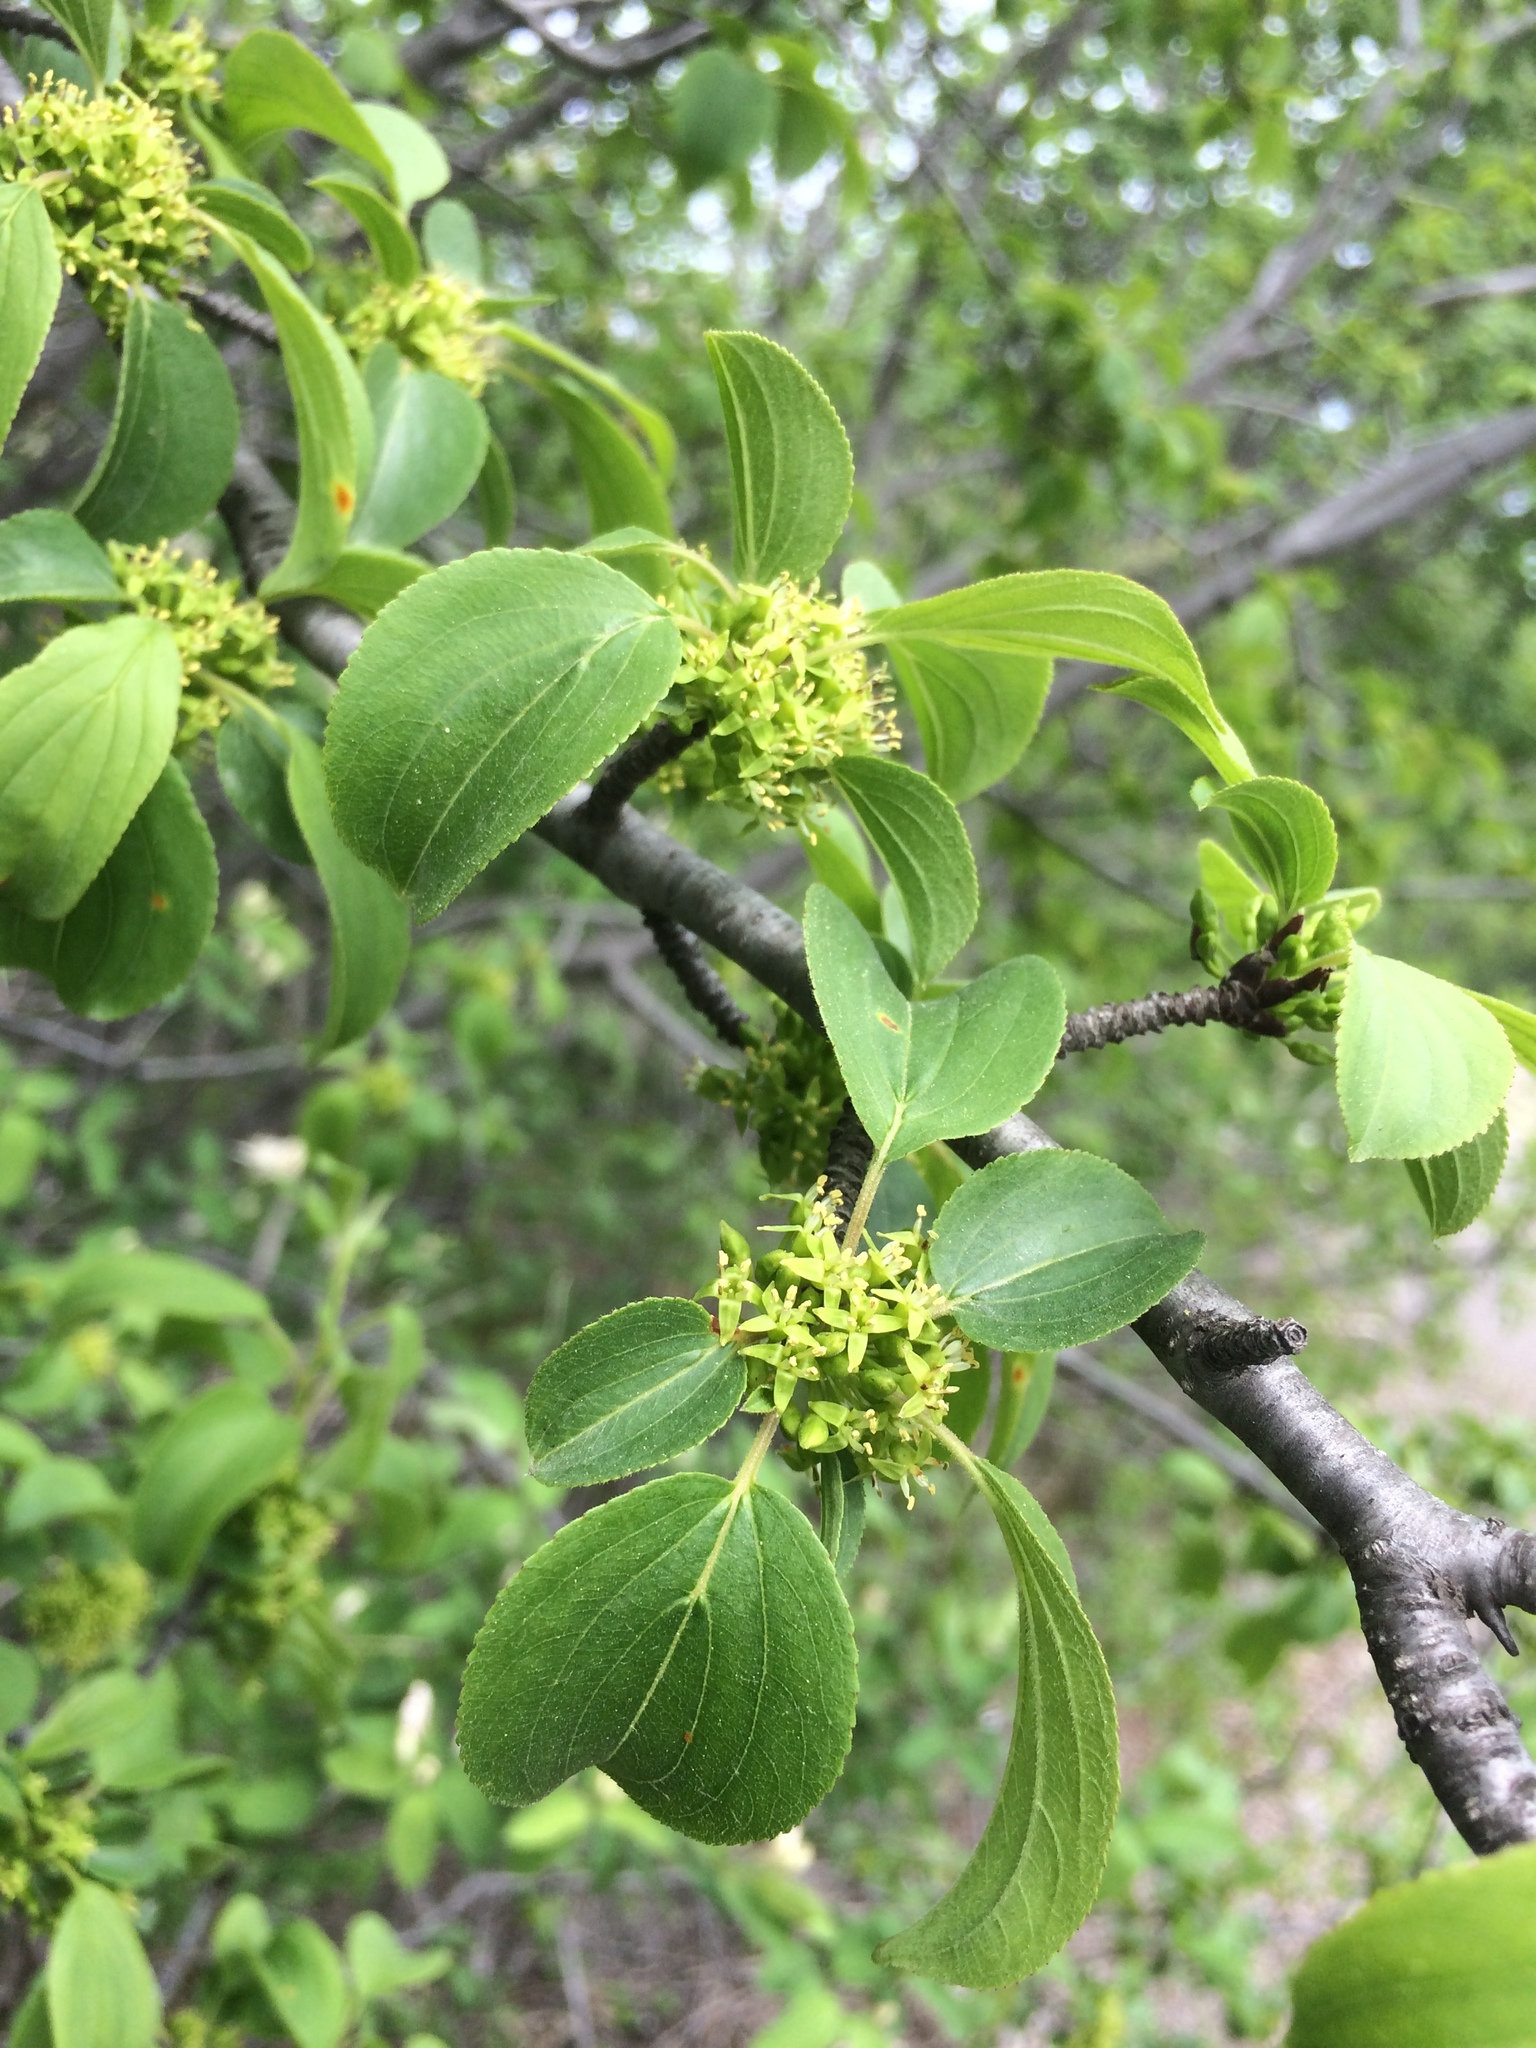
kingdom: Plantae
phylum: Tracheophyta
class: Magnoliopsida
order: Rosales
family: Rhamnaceae
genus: Rhamnus
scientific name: Rhamnus cathartica
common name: Common buckthorn
